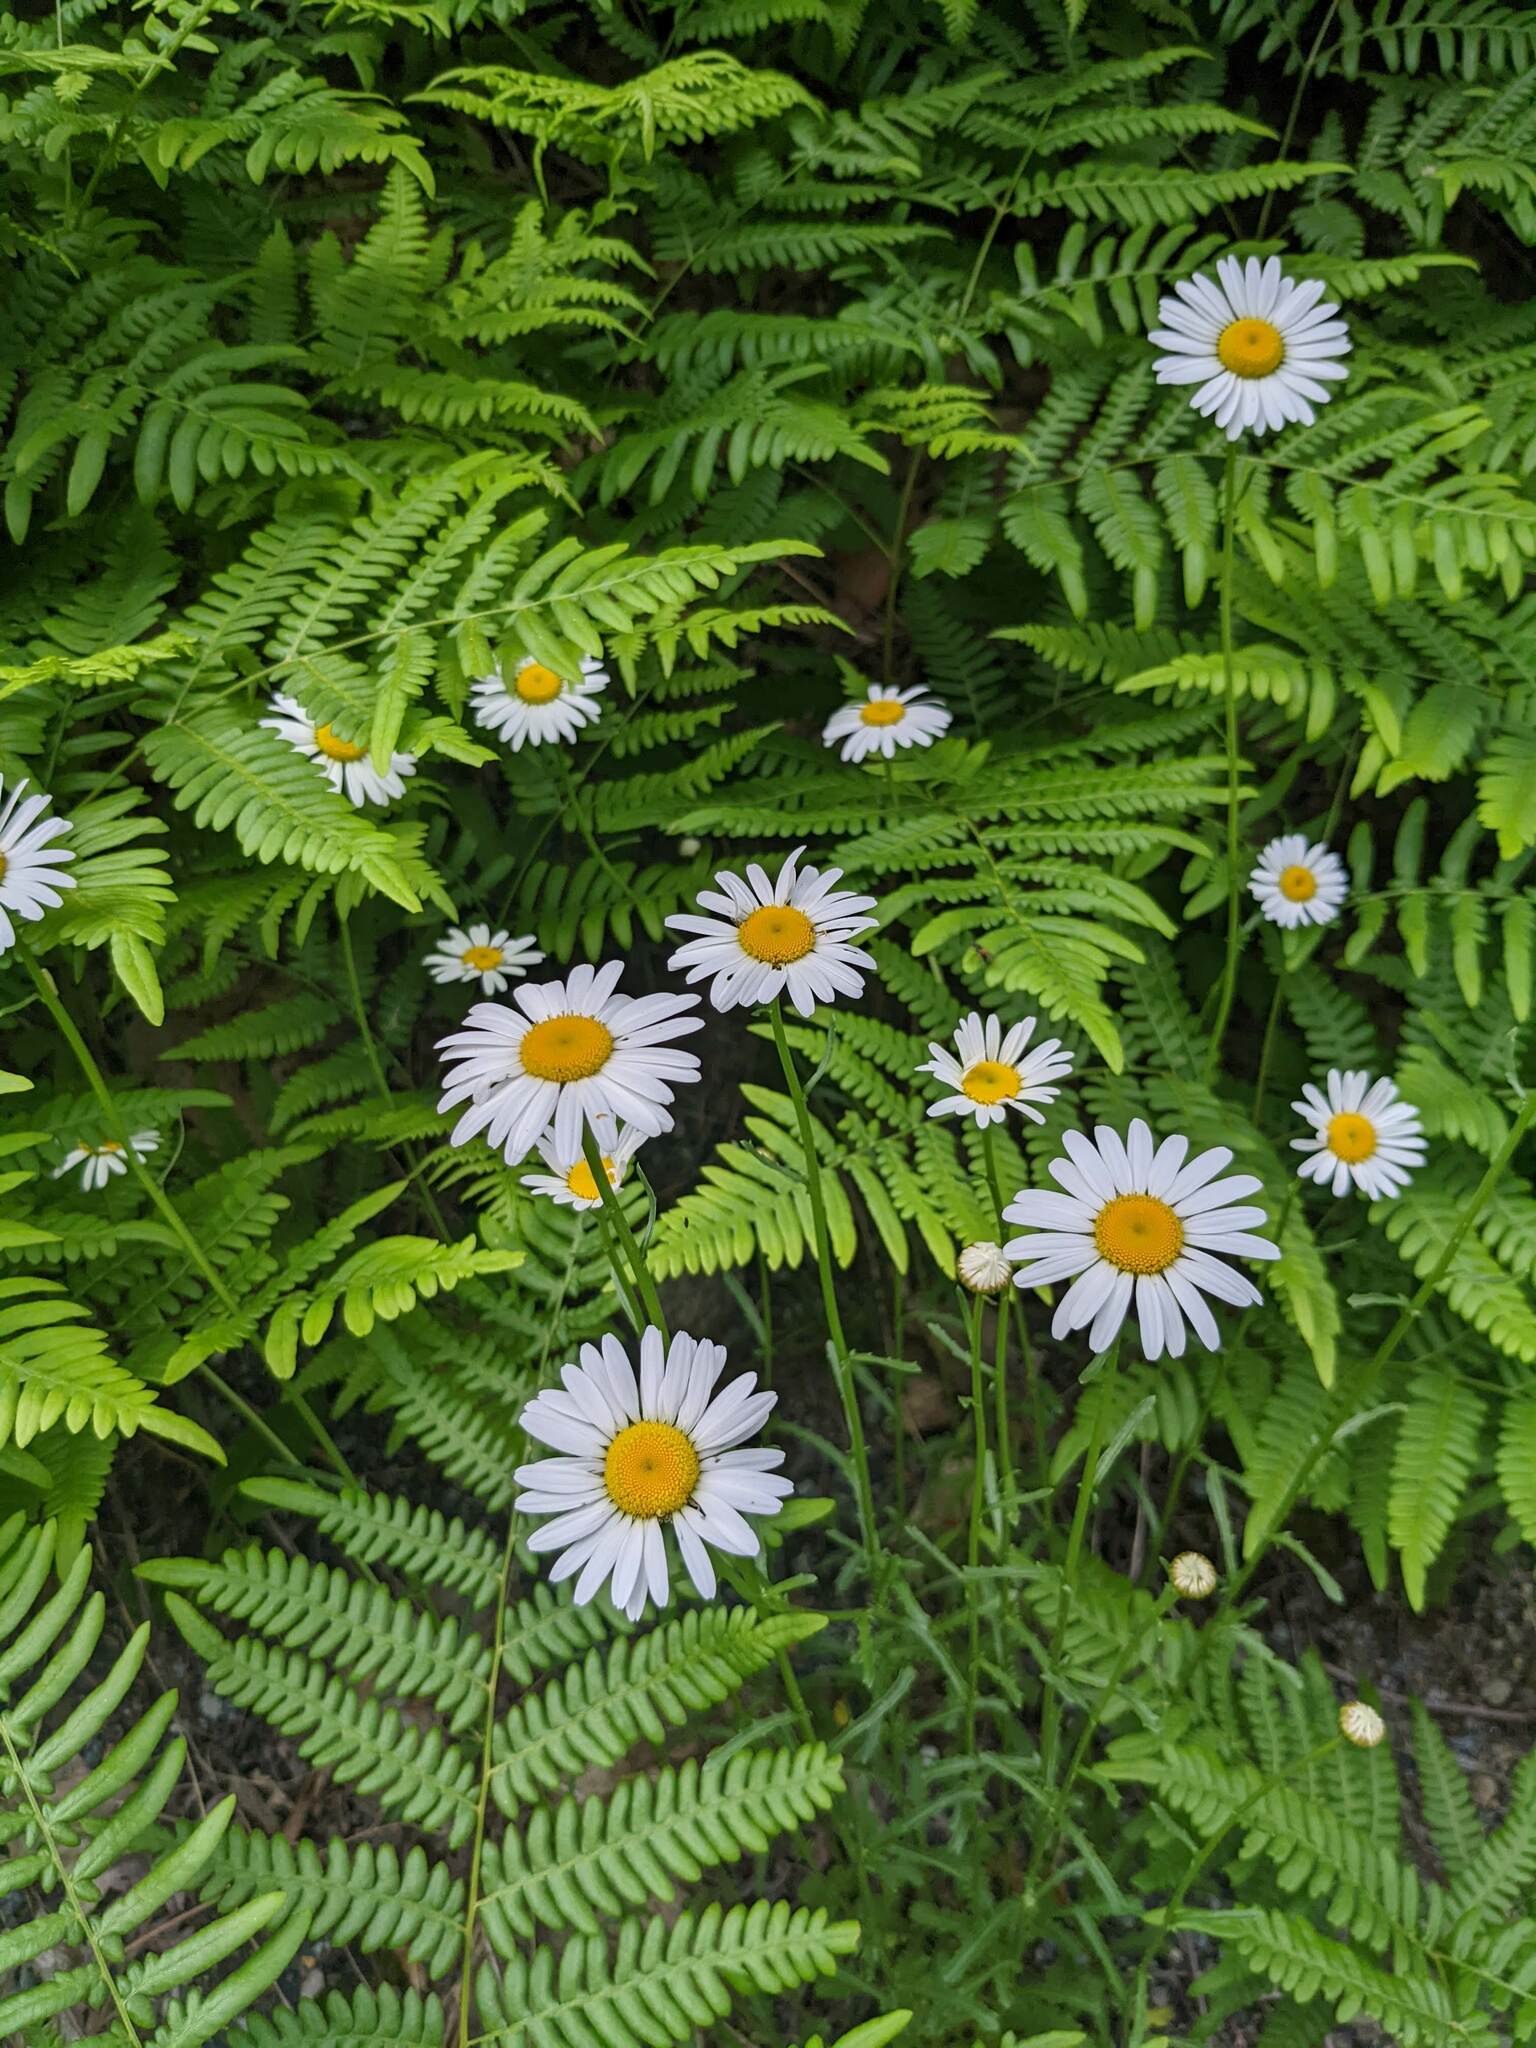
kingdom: Plantae
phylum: Tracheophyta
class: Magnoliopsida
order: Asterales
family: Asteraceae
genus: Leucanthemum
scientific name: Leucanthemum vulgare
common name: Oxeye daisy
